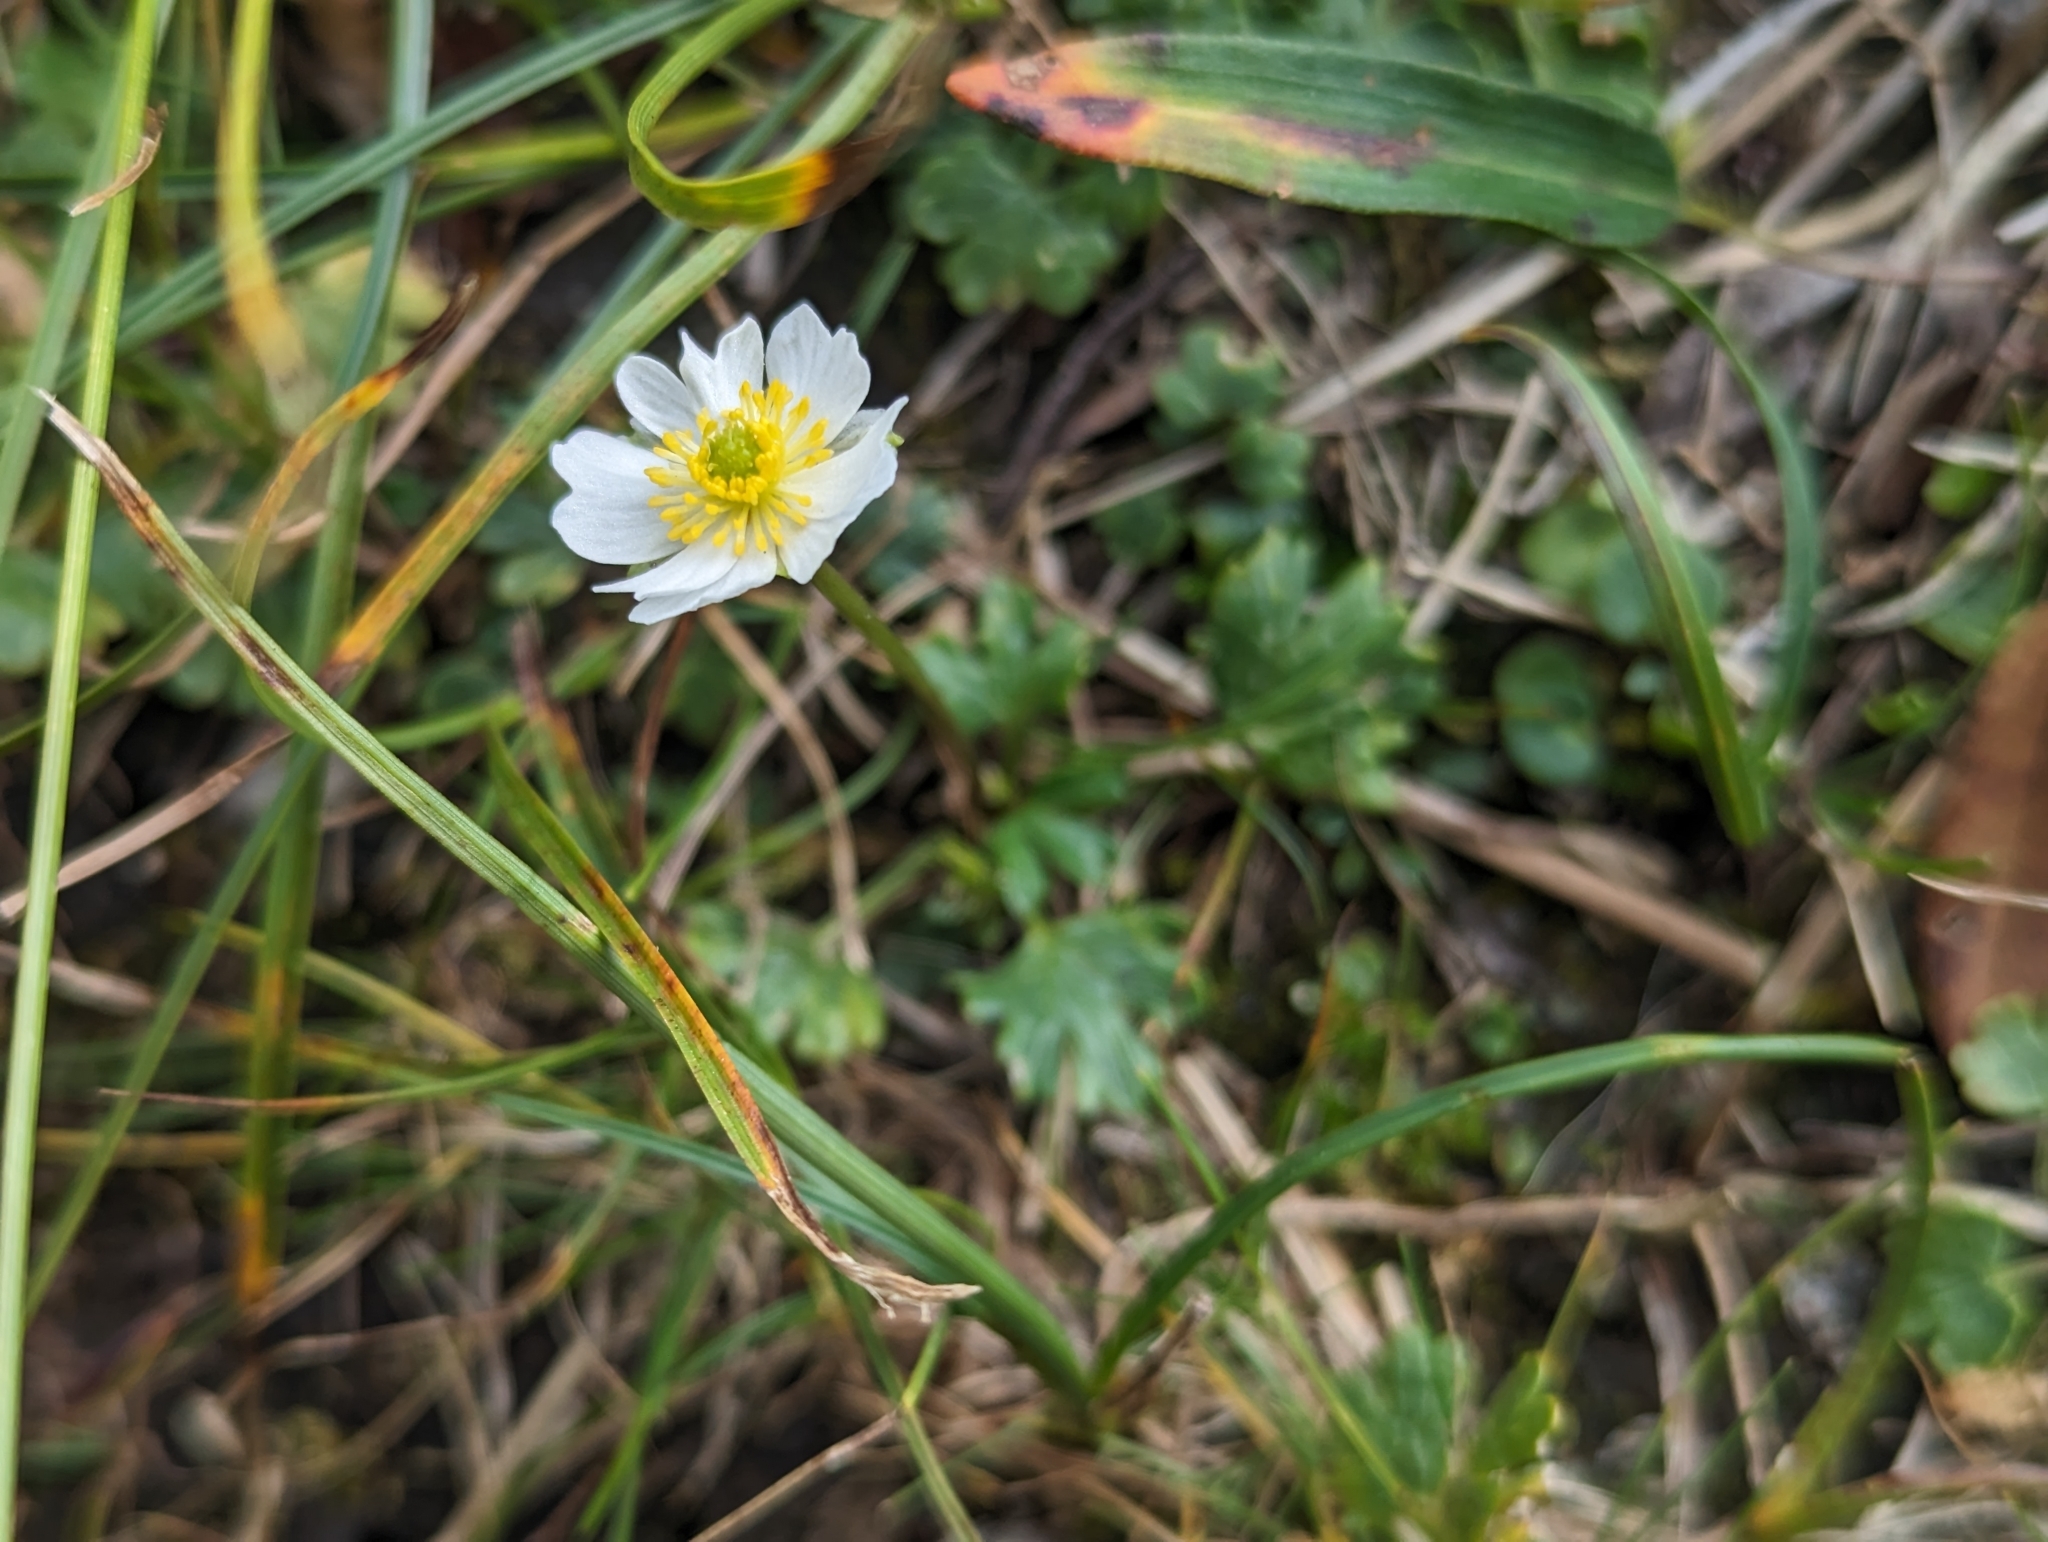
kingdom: Plantae
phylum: Tracheophyta
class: Magnoliopsida
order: Ranunculales
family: Ranunculaceae
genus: Ranunculus
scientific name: Ranunculus alpestris
